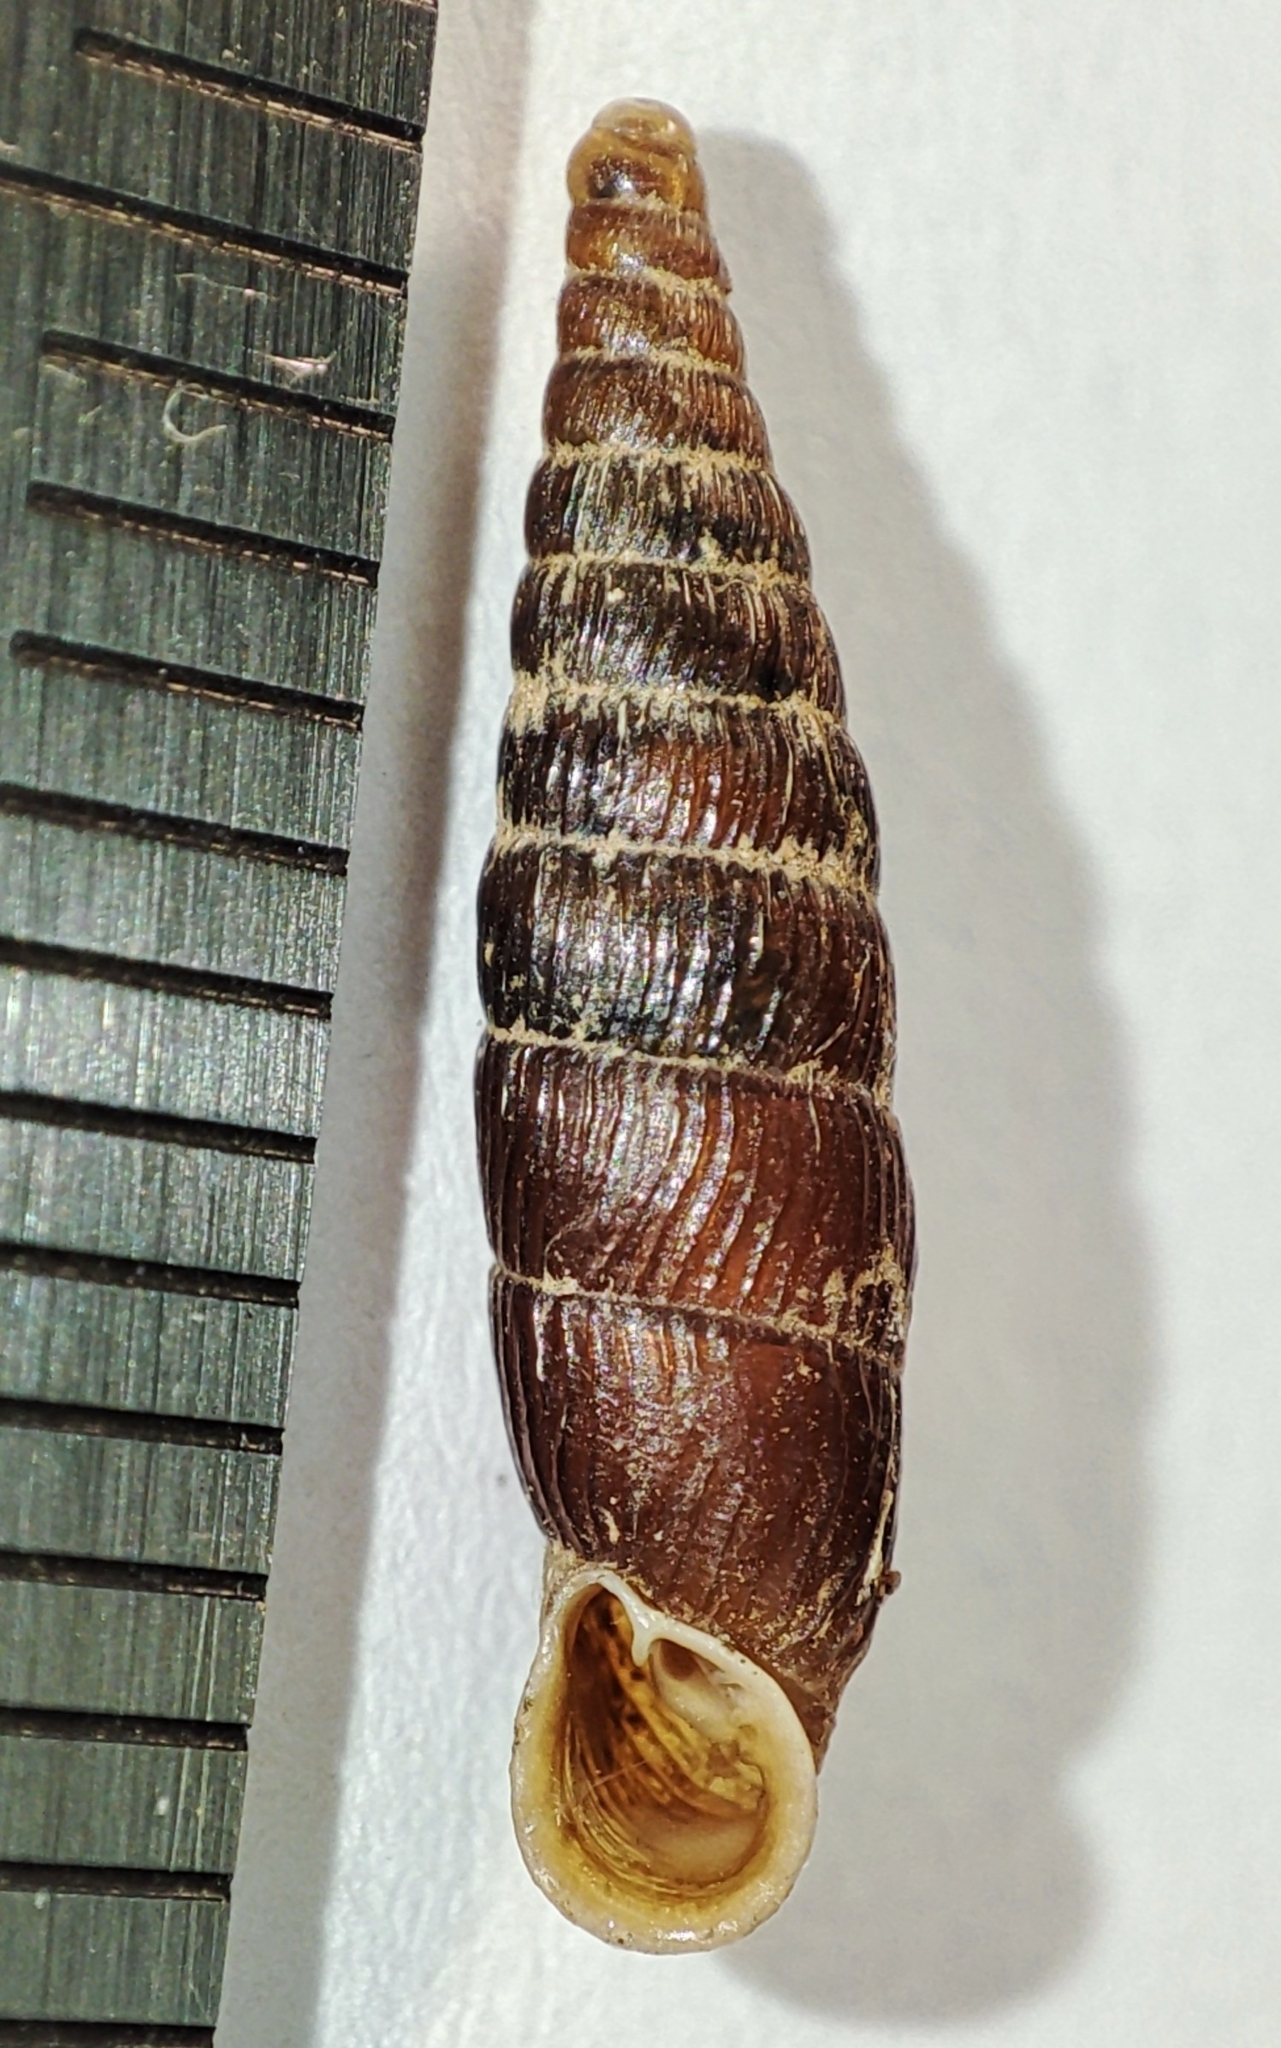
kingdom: Animalia
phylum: Mollusca
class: Gastropoda
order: Stylommatophora
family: Clausiliidae
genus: Macrogastra
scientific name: Macrogastra plicatula
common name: Plicate door snail
